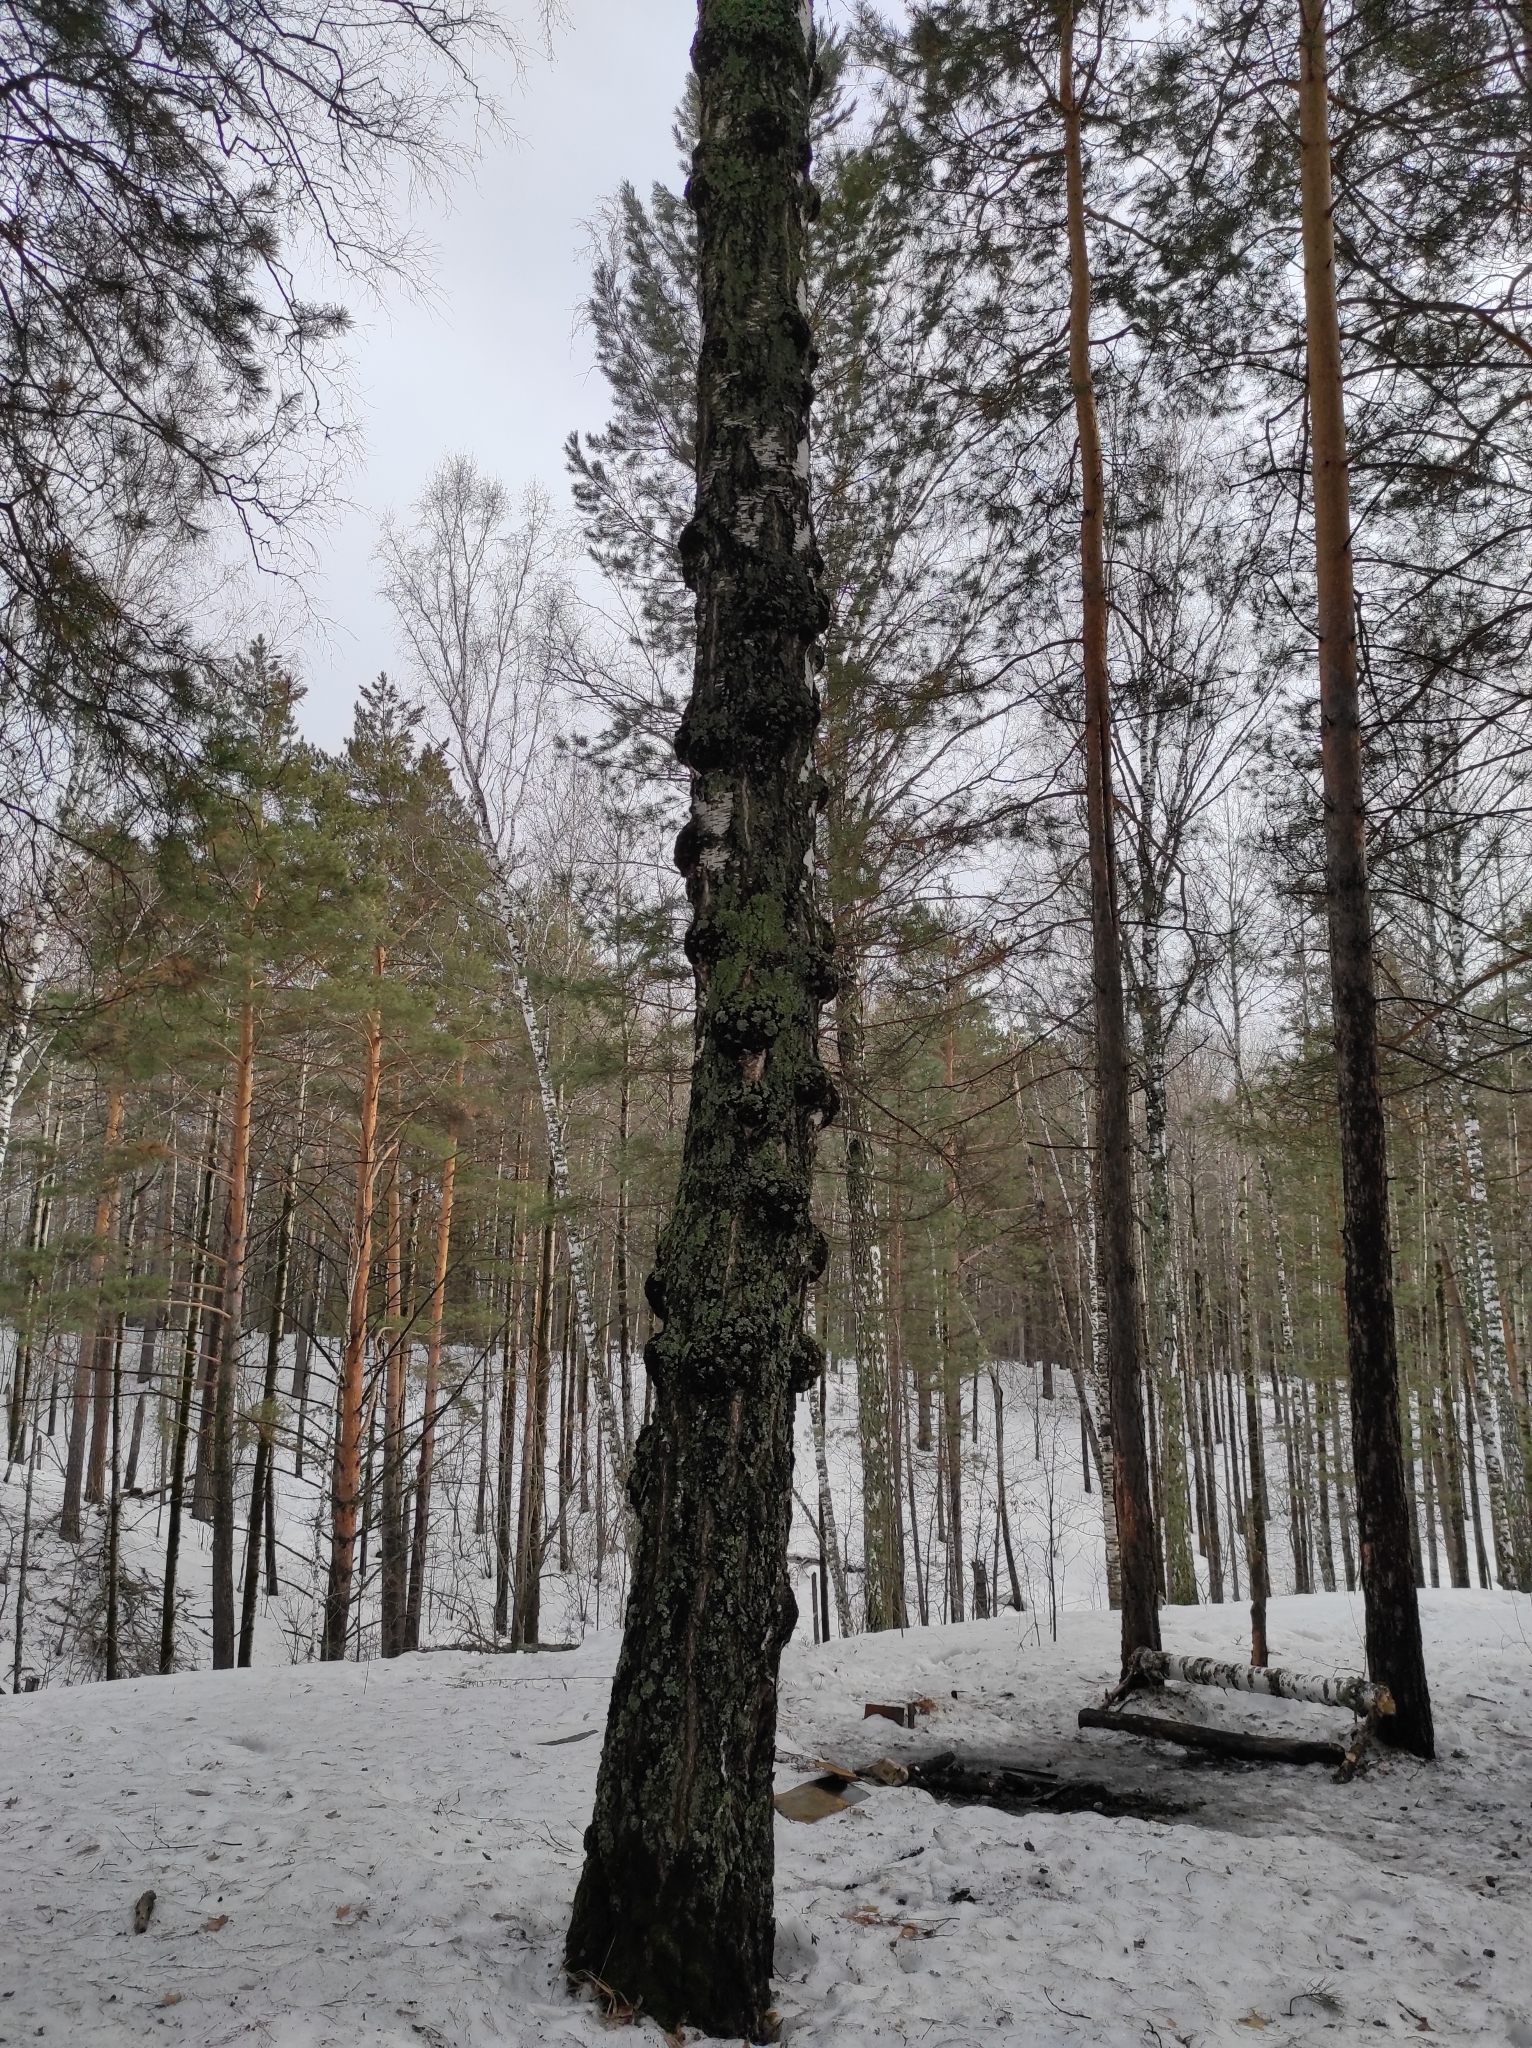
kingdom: Plantae
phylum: Tracheophyta
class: Pinopsida
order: Pinales
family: Pinaceae
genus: Pinus
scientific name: Pinus sylvestris
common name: Scots pine
